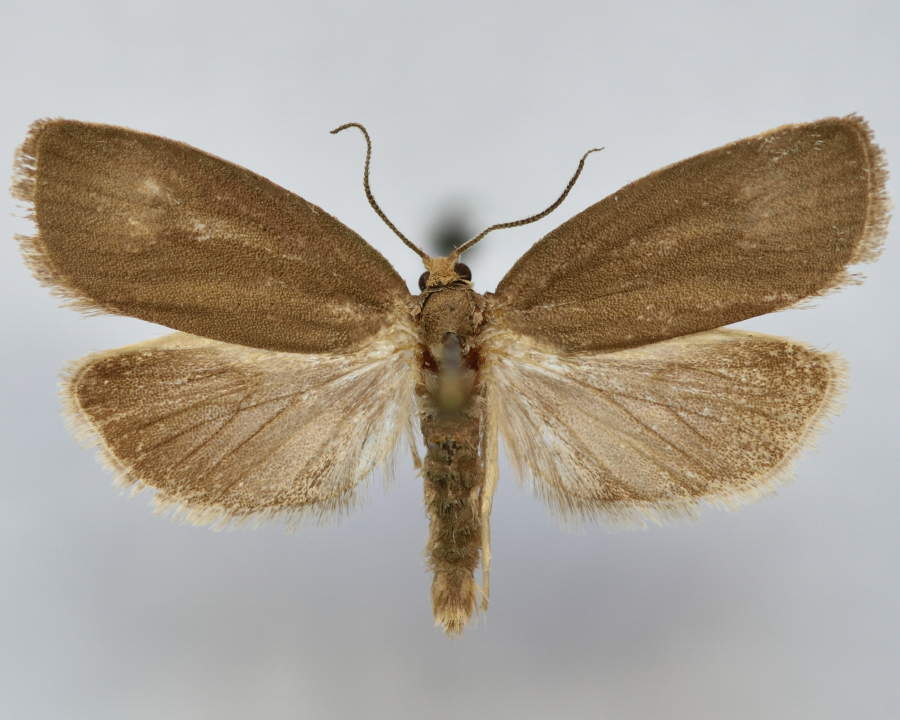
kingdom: Animalia
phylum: Arthropoda
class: Insecta
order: Lepidoptera
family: Tortricidae
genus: Aphelia
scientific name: Aphelia viburnana
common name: Bilberry tortrix
